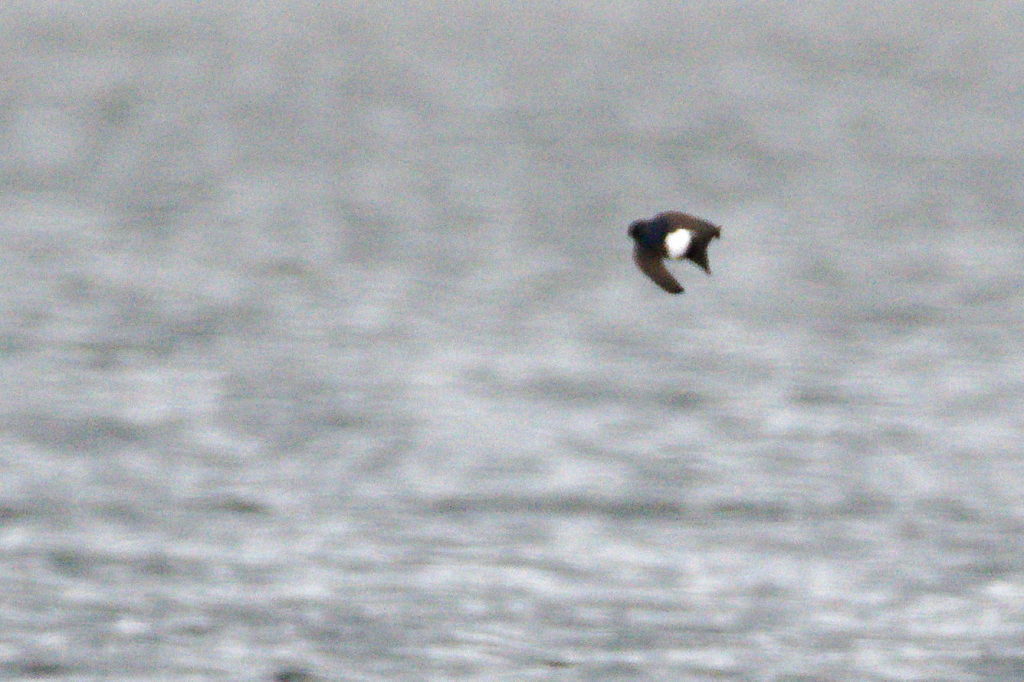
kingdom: Animalia
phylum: Chordata
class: Aves
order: Passeriformes
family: Hirundinidae
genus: Delichon
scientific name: Delichon urbicum
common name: Common house martin
